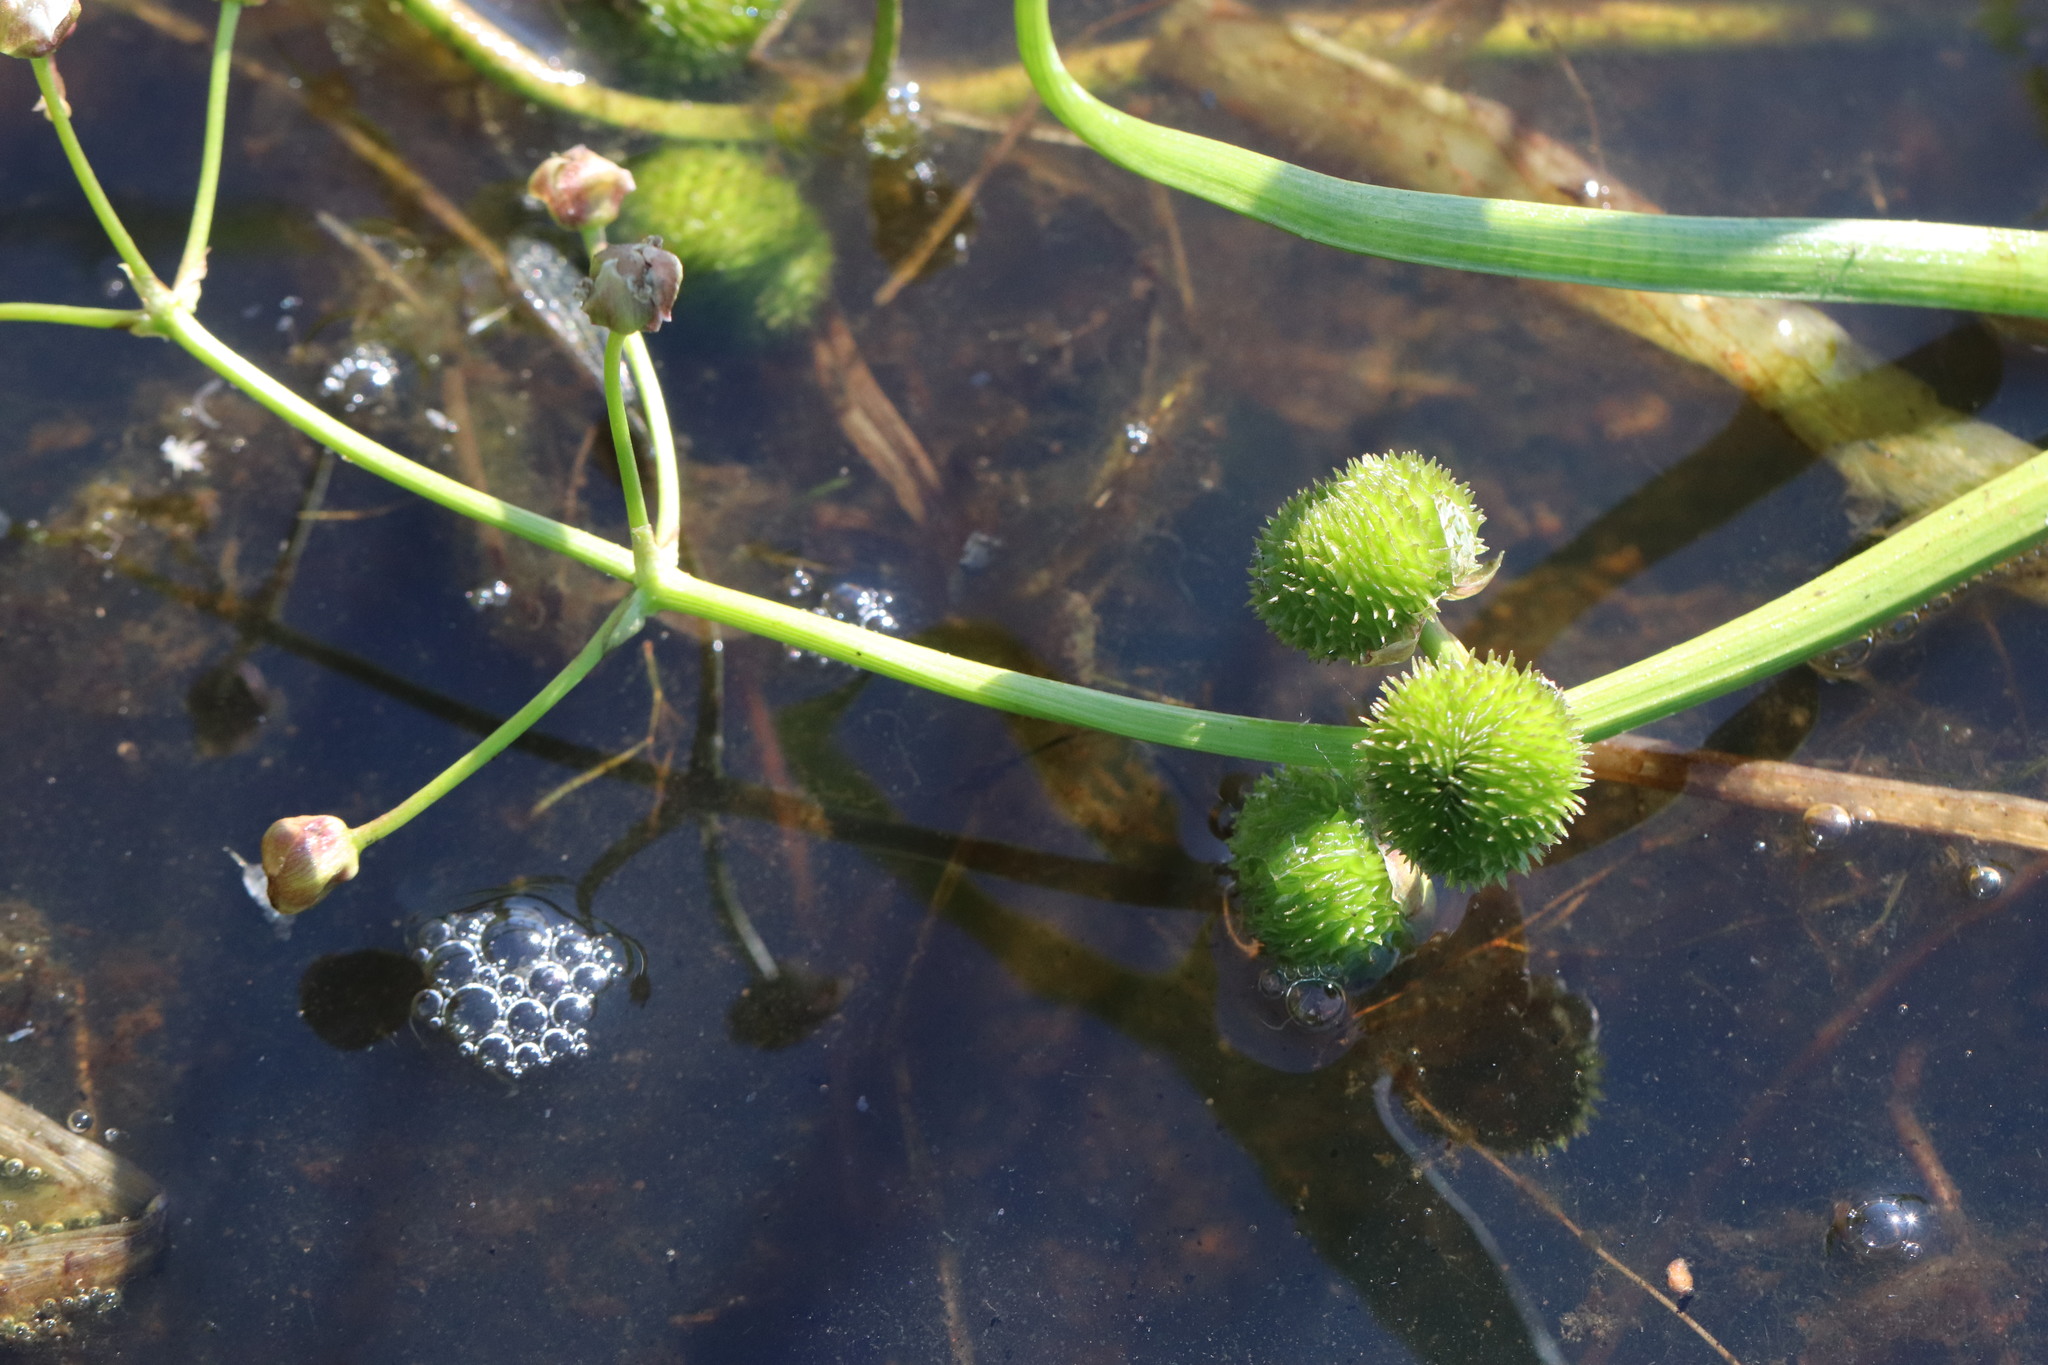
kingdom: Plantae
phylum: Tracheophyta
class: Liliopsida
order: Alismatales
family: Alismataceae
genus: Sagittaria
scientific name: Sagittaria sagittifolia
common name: Arrowhead
